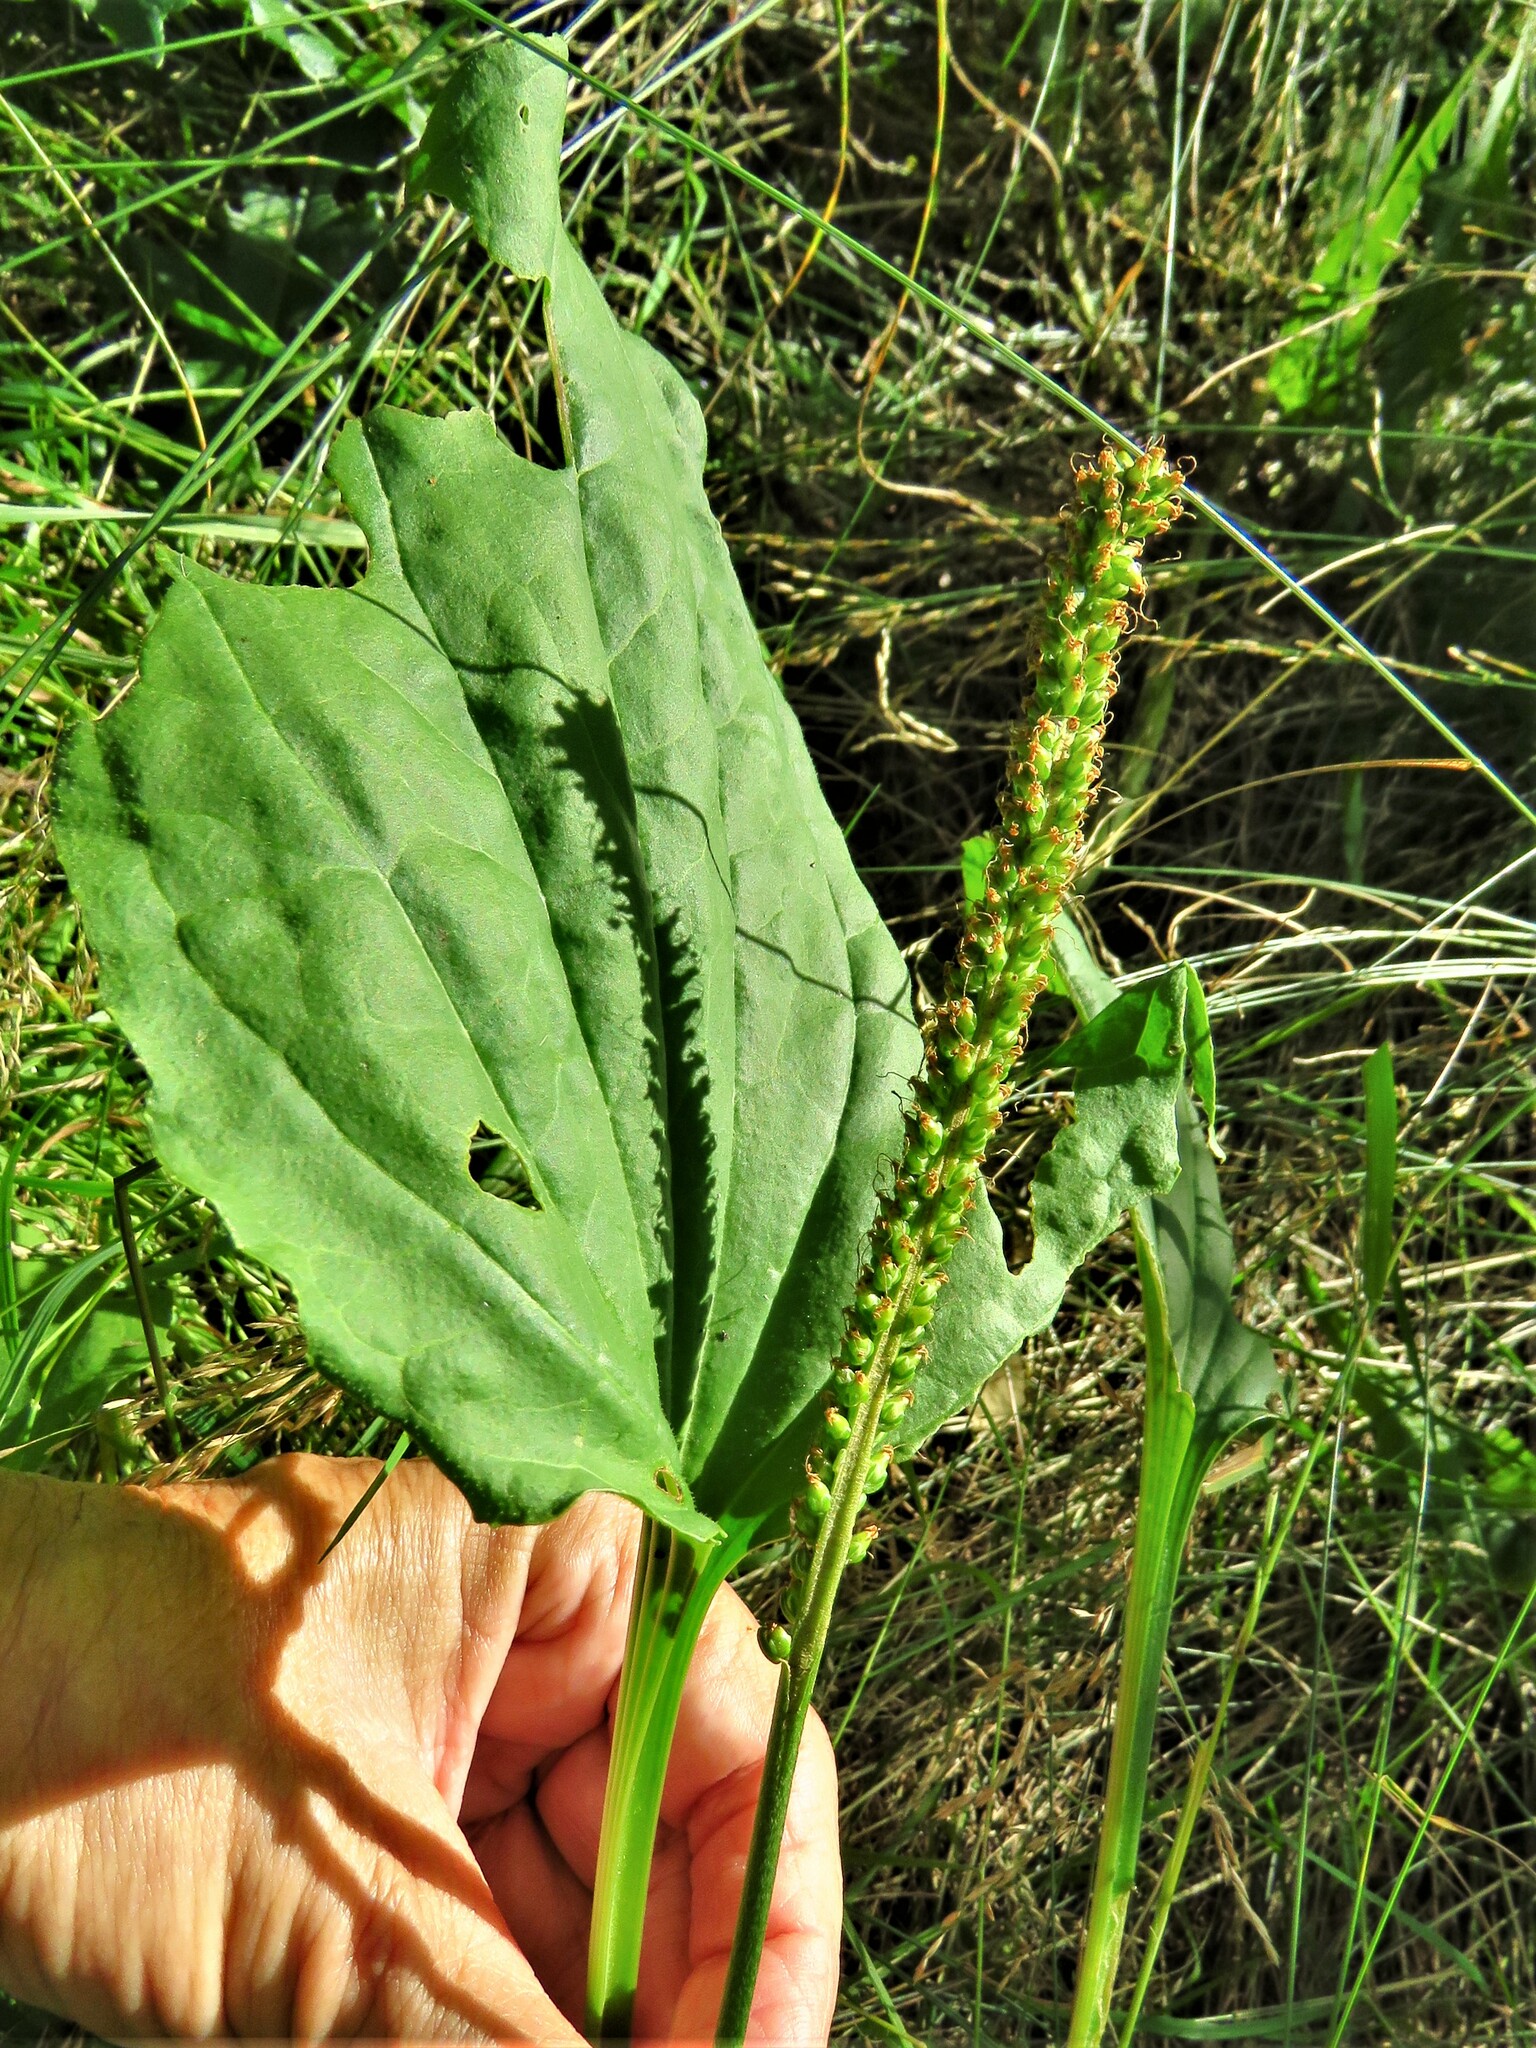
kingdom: Plantae
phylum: Tracheophyta
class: Magnoliopsida
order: Lamiales
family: Plantaginaceae
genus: Plantago
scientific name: Plantago major
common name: Common plantain
